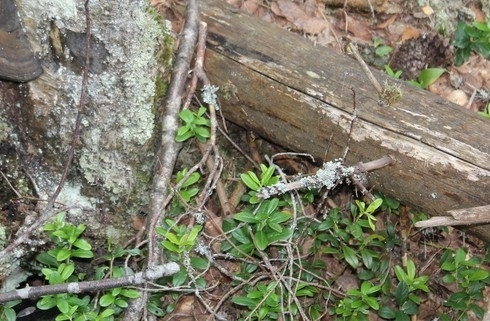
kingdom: Plantae
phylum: Tracheophyta
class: Magnoliopsida
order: Ericales
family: Ericaceae
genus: Vaccinium
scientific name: Vaccinium vitis-idaea
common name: Cowberry
